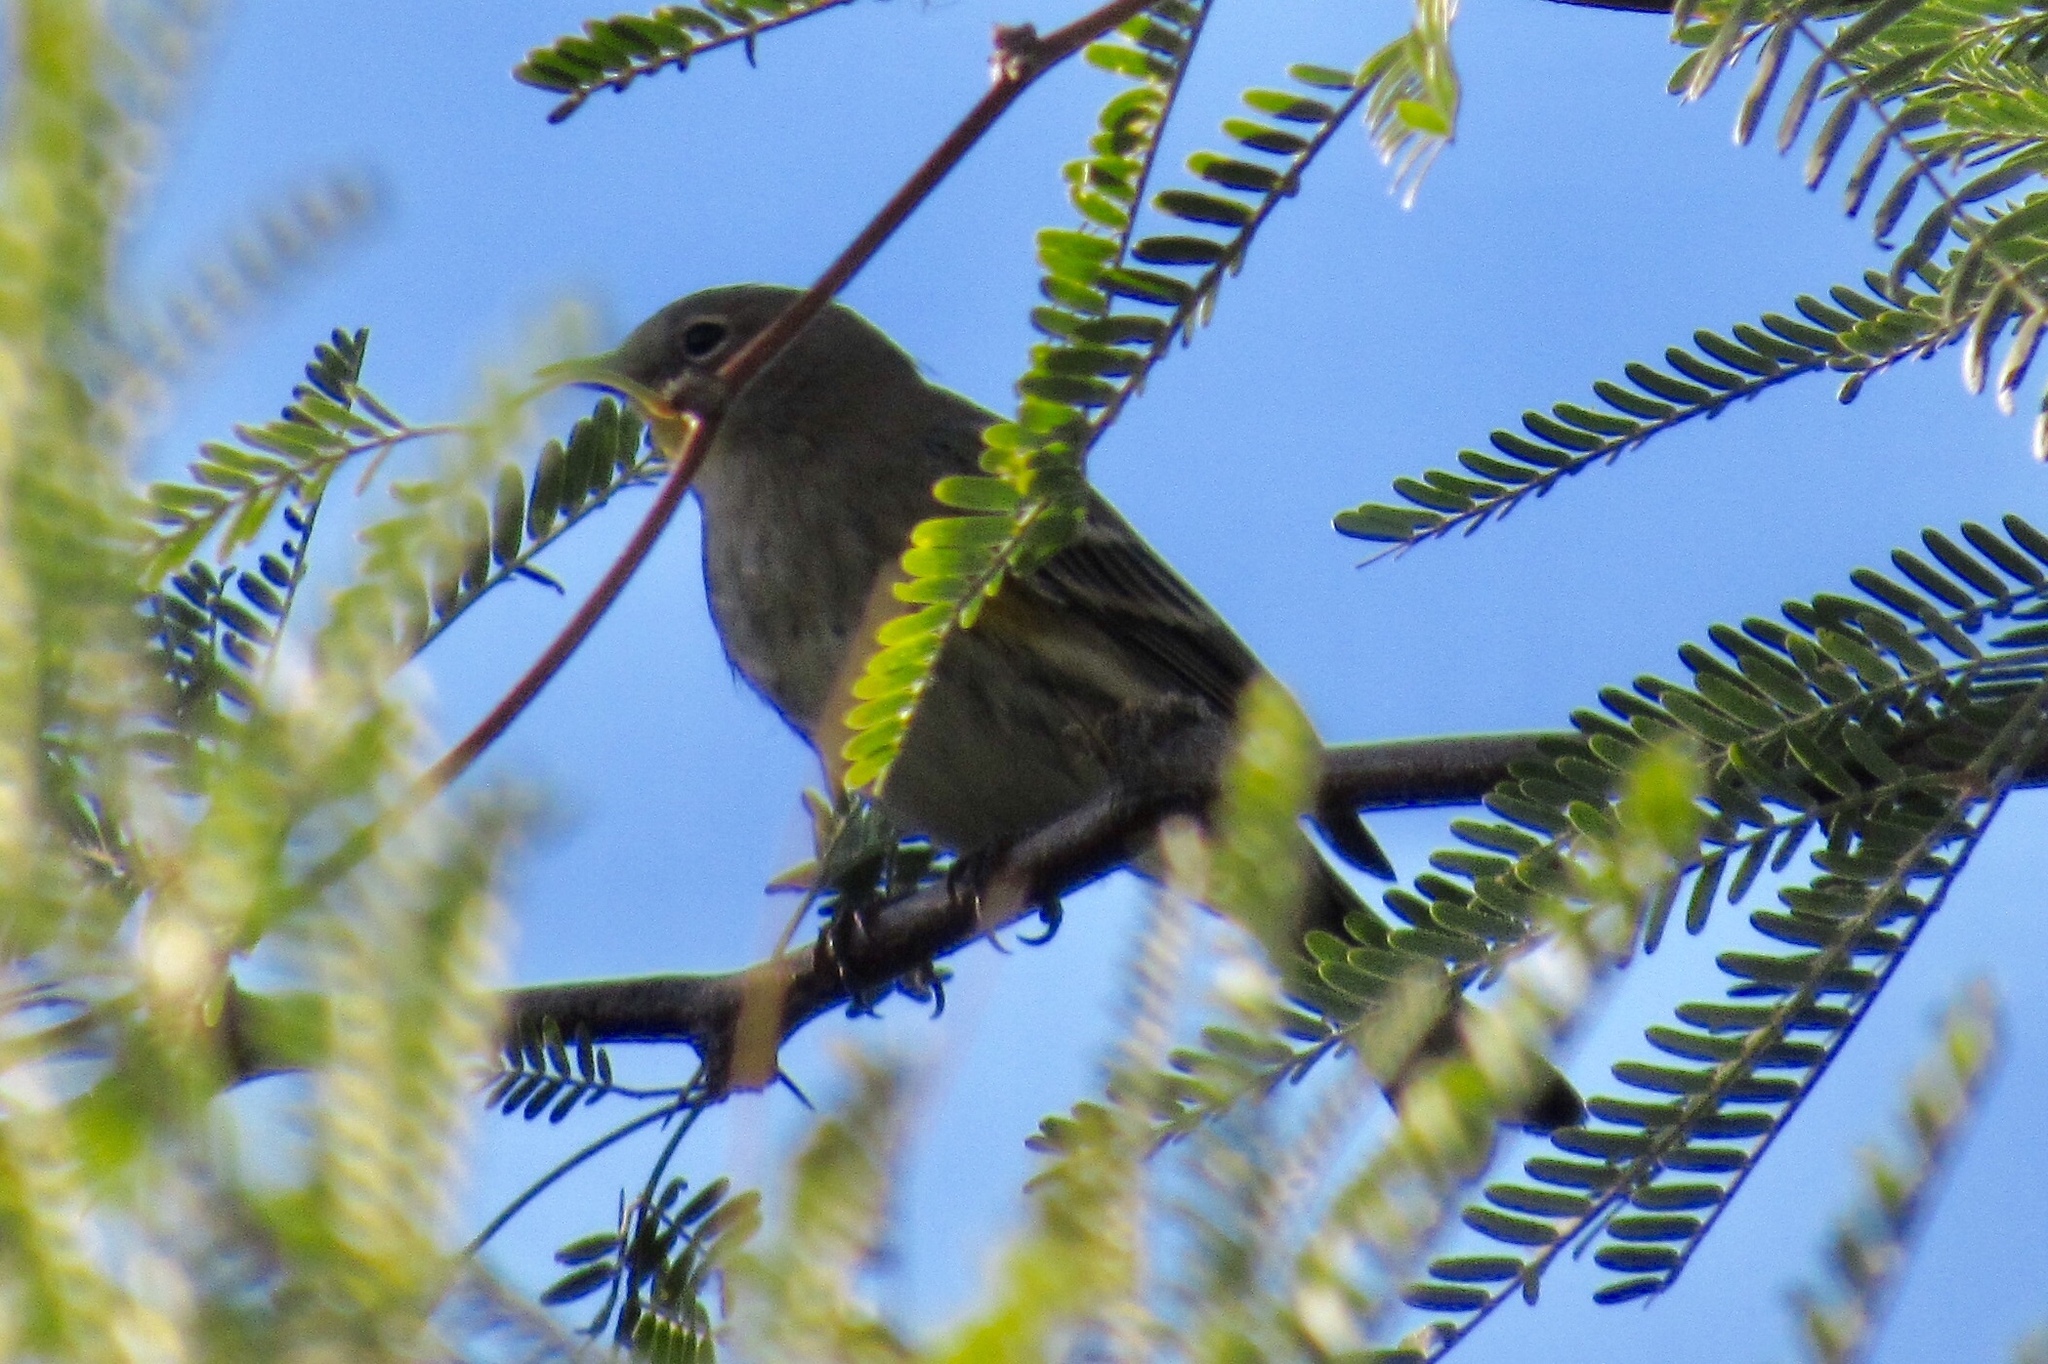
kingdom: Animalia
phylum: Chordata
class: Aves
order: Passeriformes
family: Parulidae
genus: Setophaga
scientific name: Setophaga coronata
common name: Myrtle warbler
